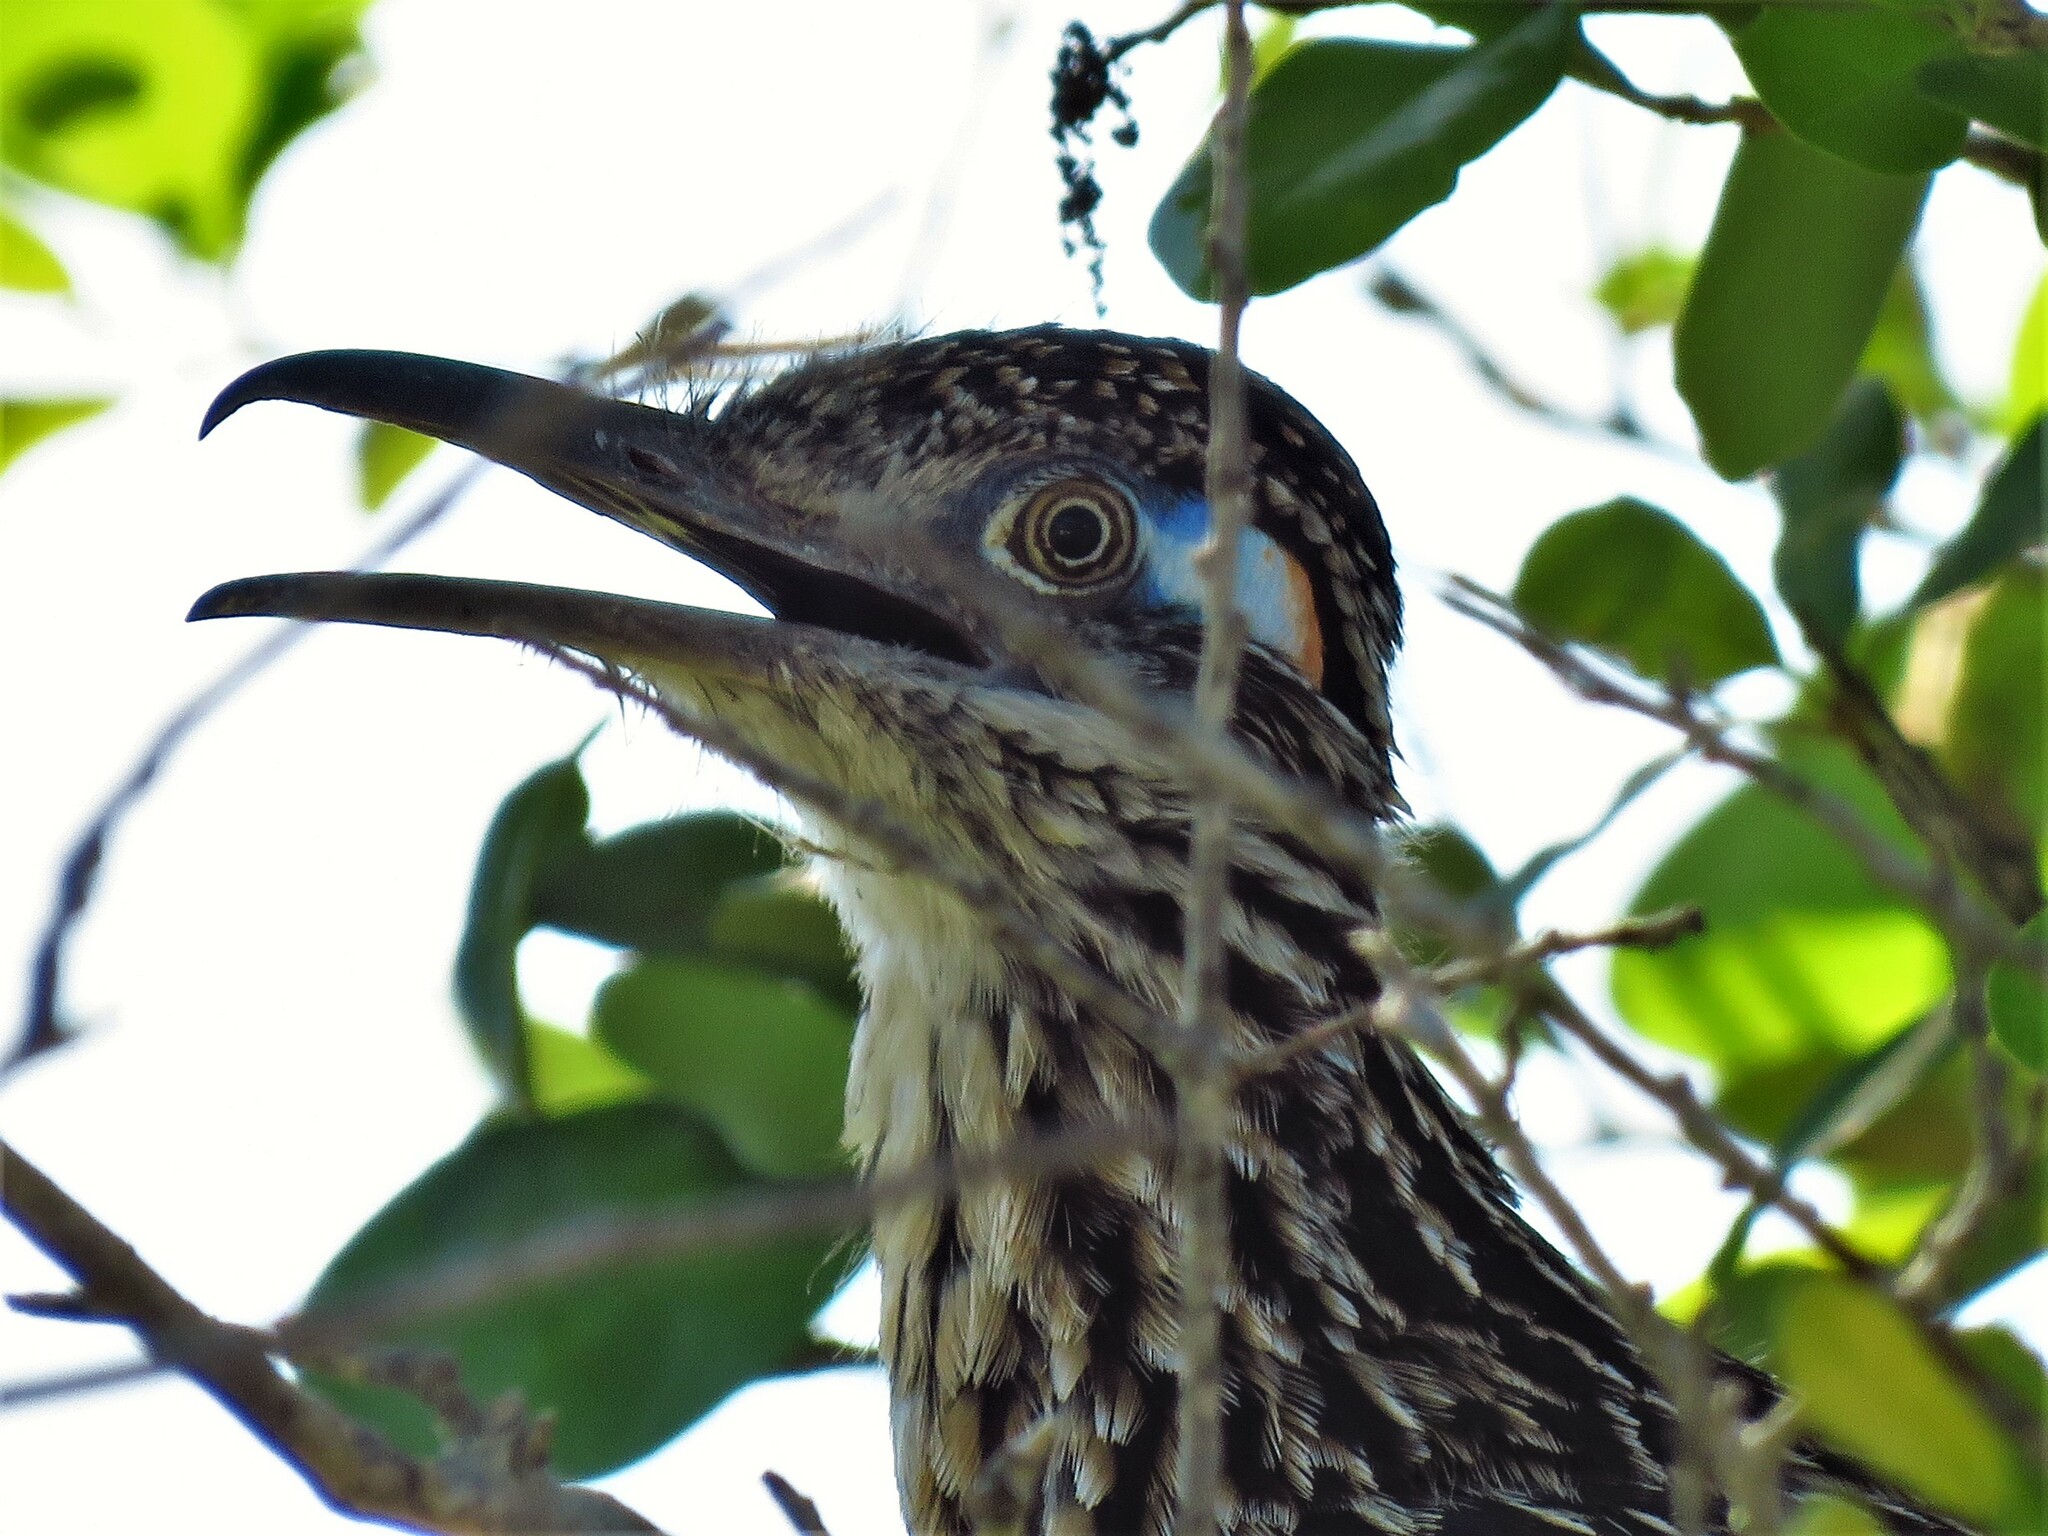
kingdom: Animalia
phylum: Chordata
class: Aves
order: Cuculiformes
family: Cuculidae
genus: Geococcyx
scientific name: Geococcyx californianus
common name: Greater roadrunner
